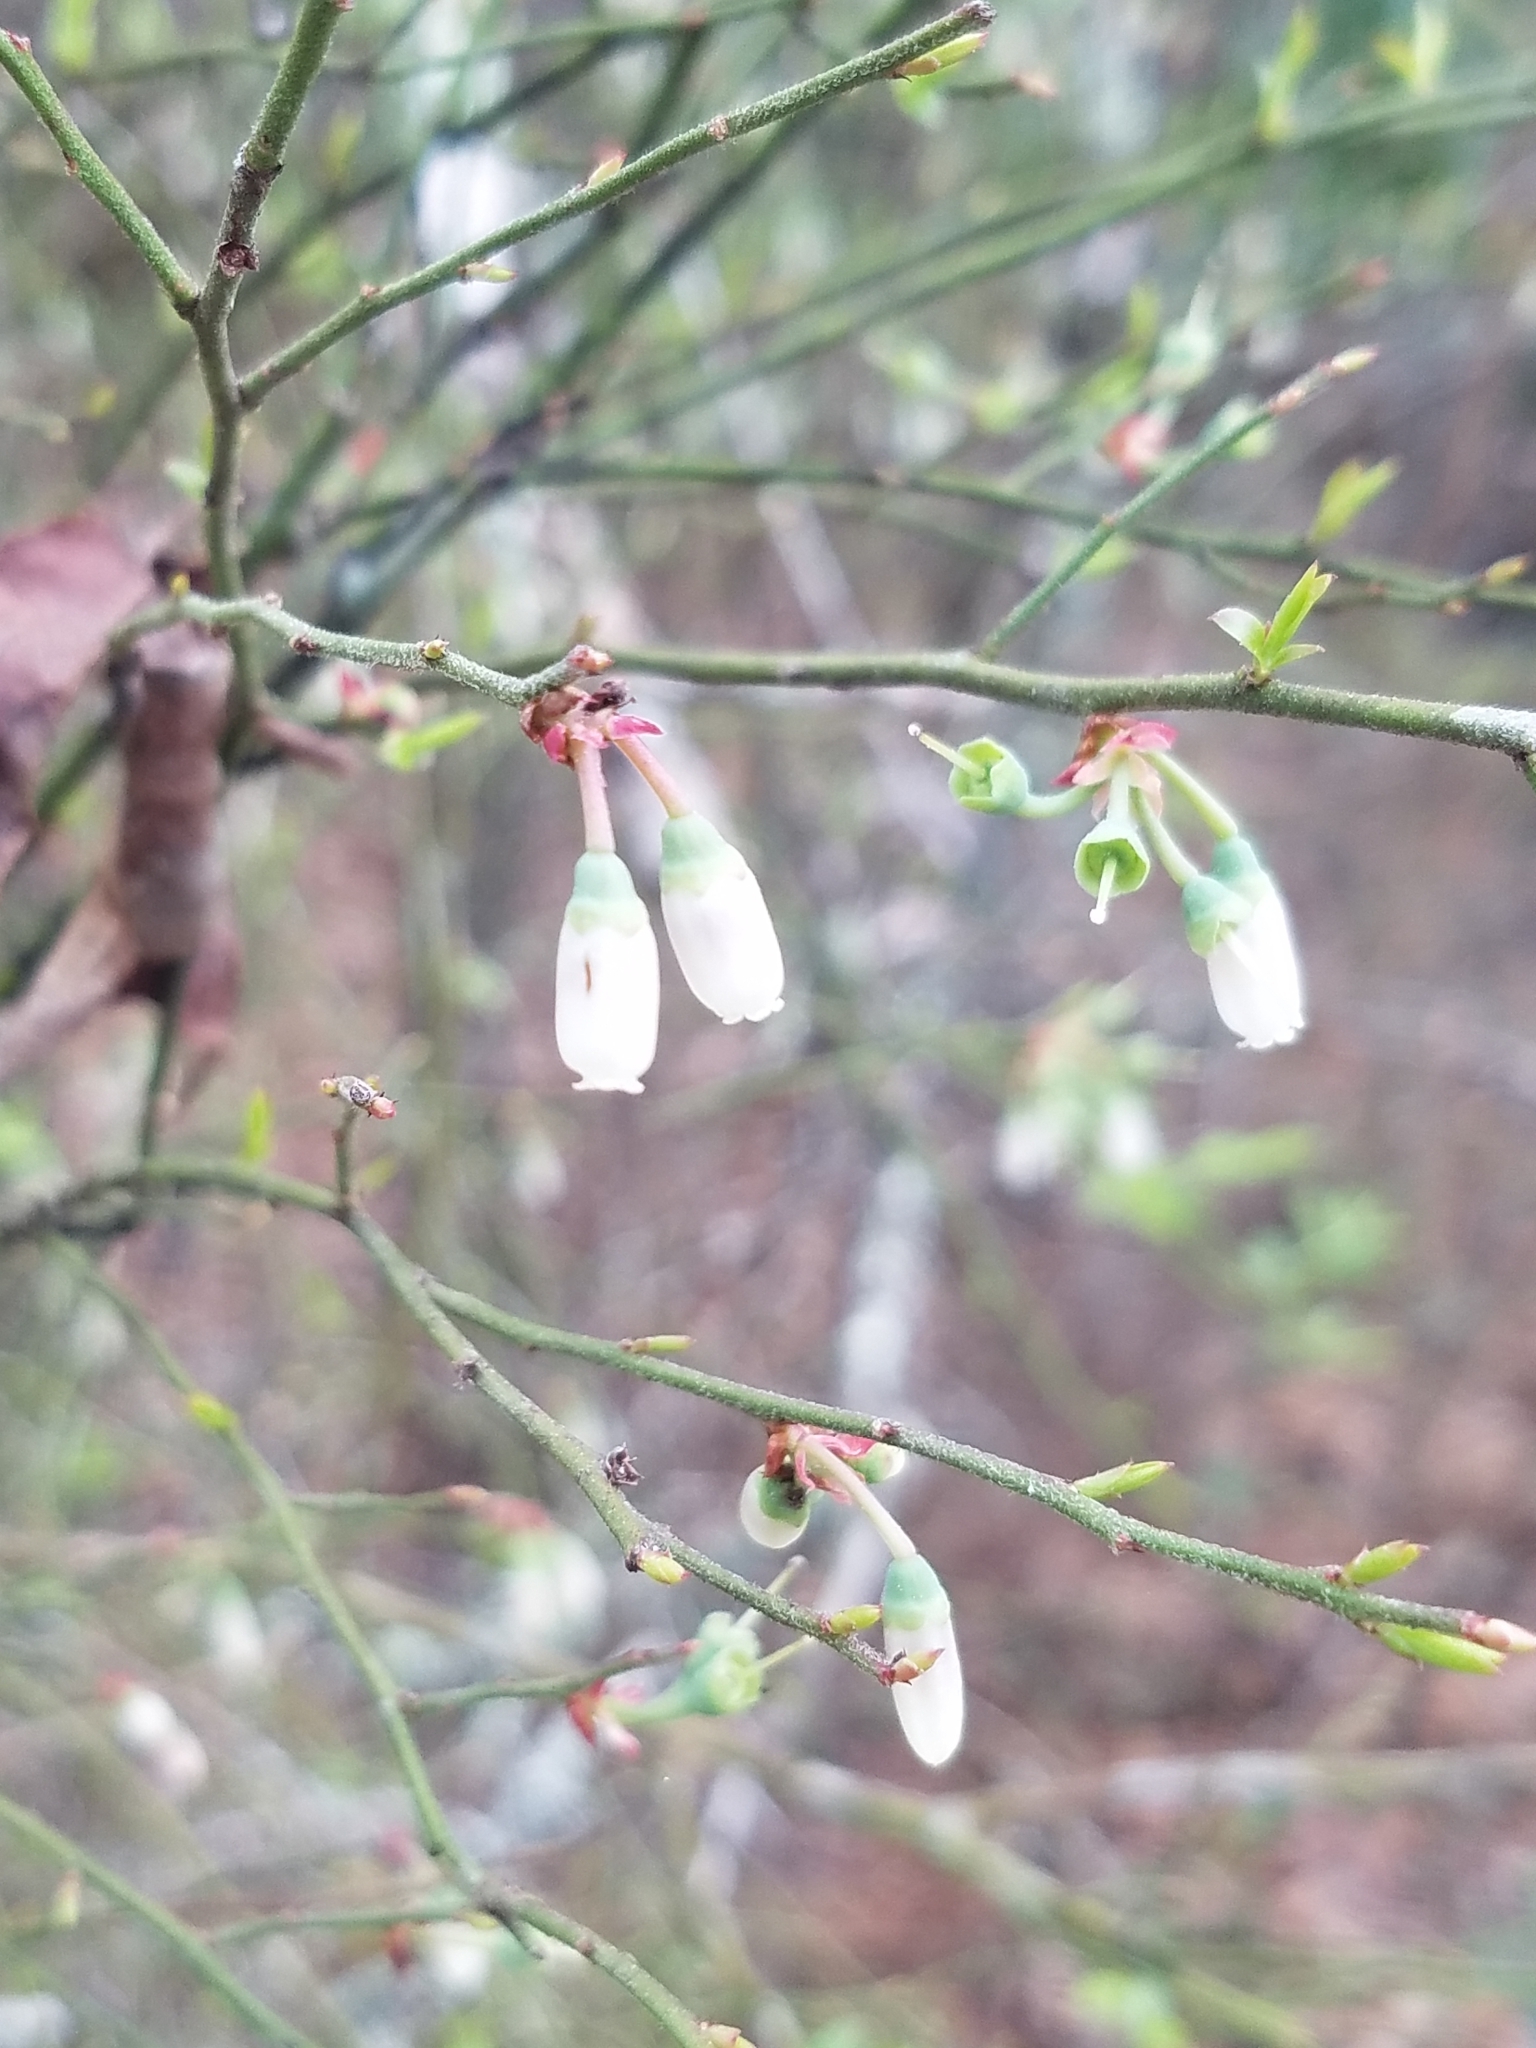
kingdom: Plantae
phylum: Tracheophyta
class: Magnoliopsida
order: Ericales
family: Ericaceae
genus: Vaccinium
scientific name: Vaccinium corymbosum
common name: Blueberry
